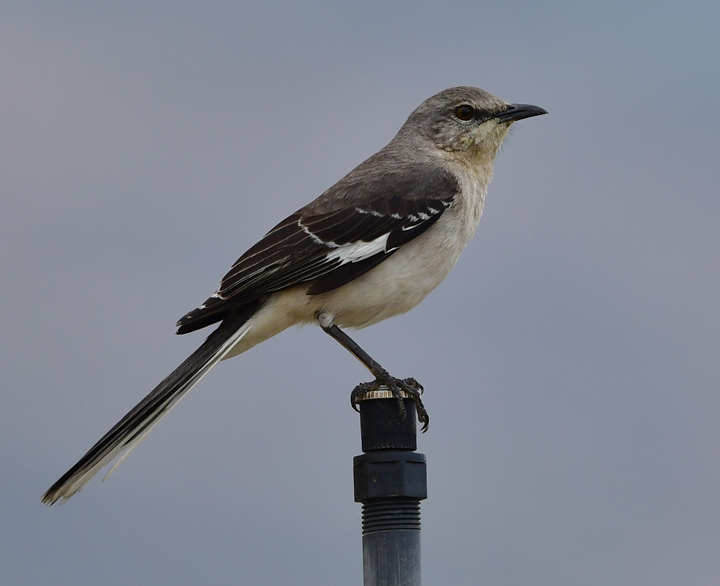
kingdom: Animalia
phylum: Chordata
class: Aves
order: Passeriformes
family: Mimidae
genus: Mimus
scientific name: Mimus polyglottos
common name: Northern mockingbird
